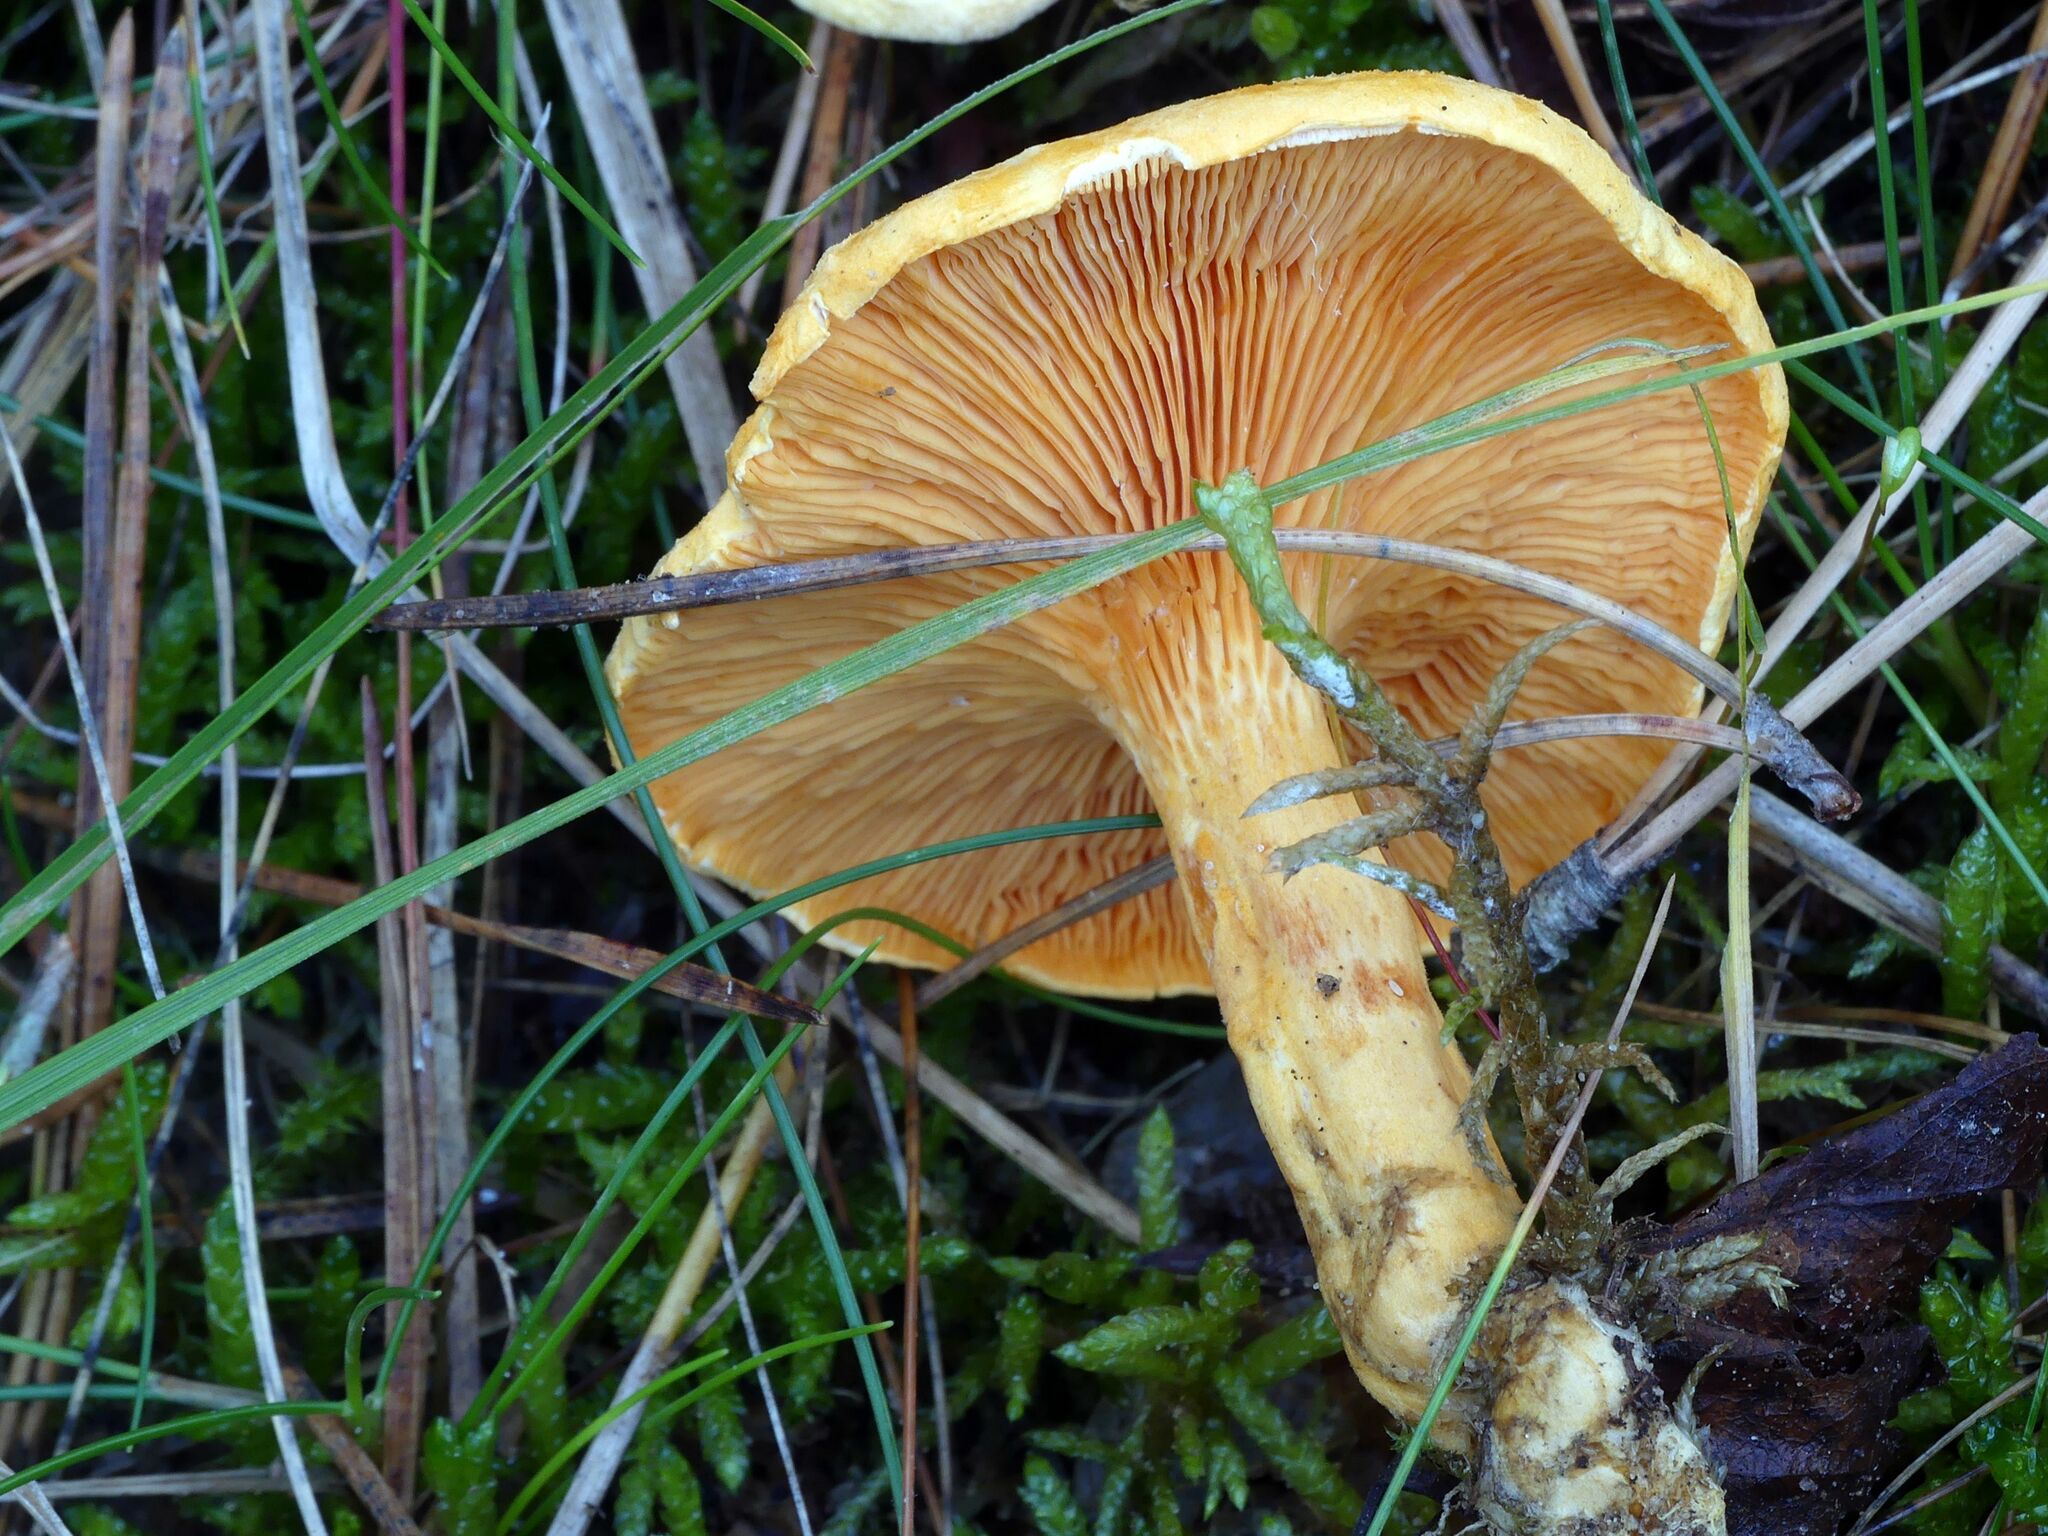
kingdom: Fungi
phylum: Basidiomycota
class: Agaricomycetes
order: Boletales
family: Hygrophoropsidaceae
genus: Hygrophoropsis
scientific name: Hygrophoropsis aurantiaca
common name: False chanterelle
